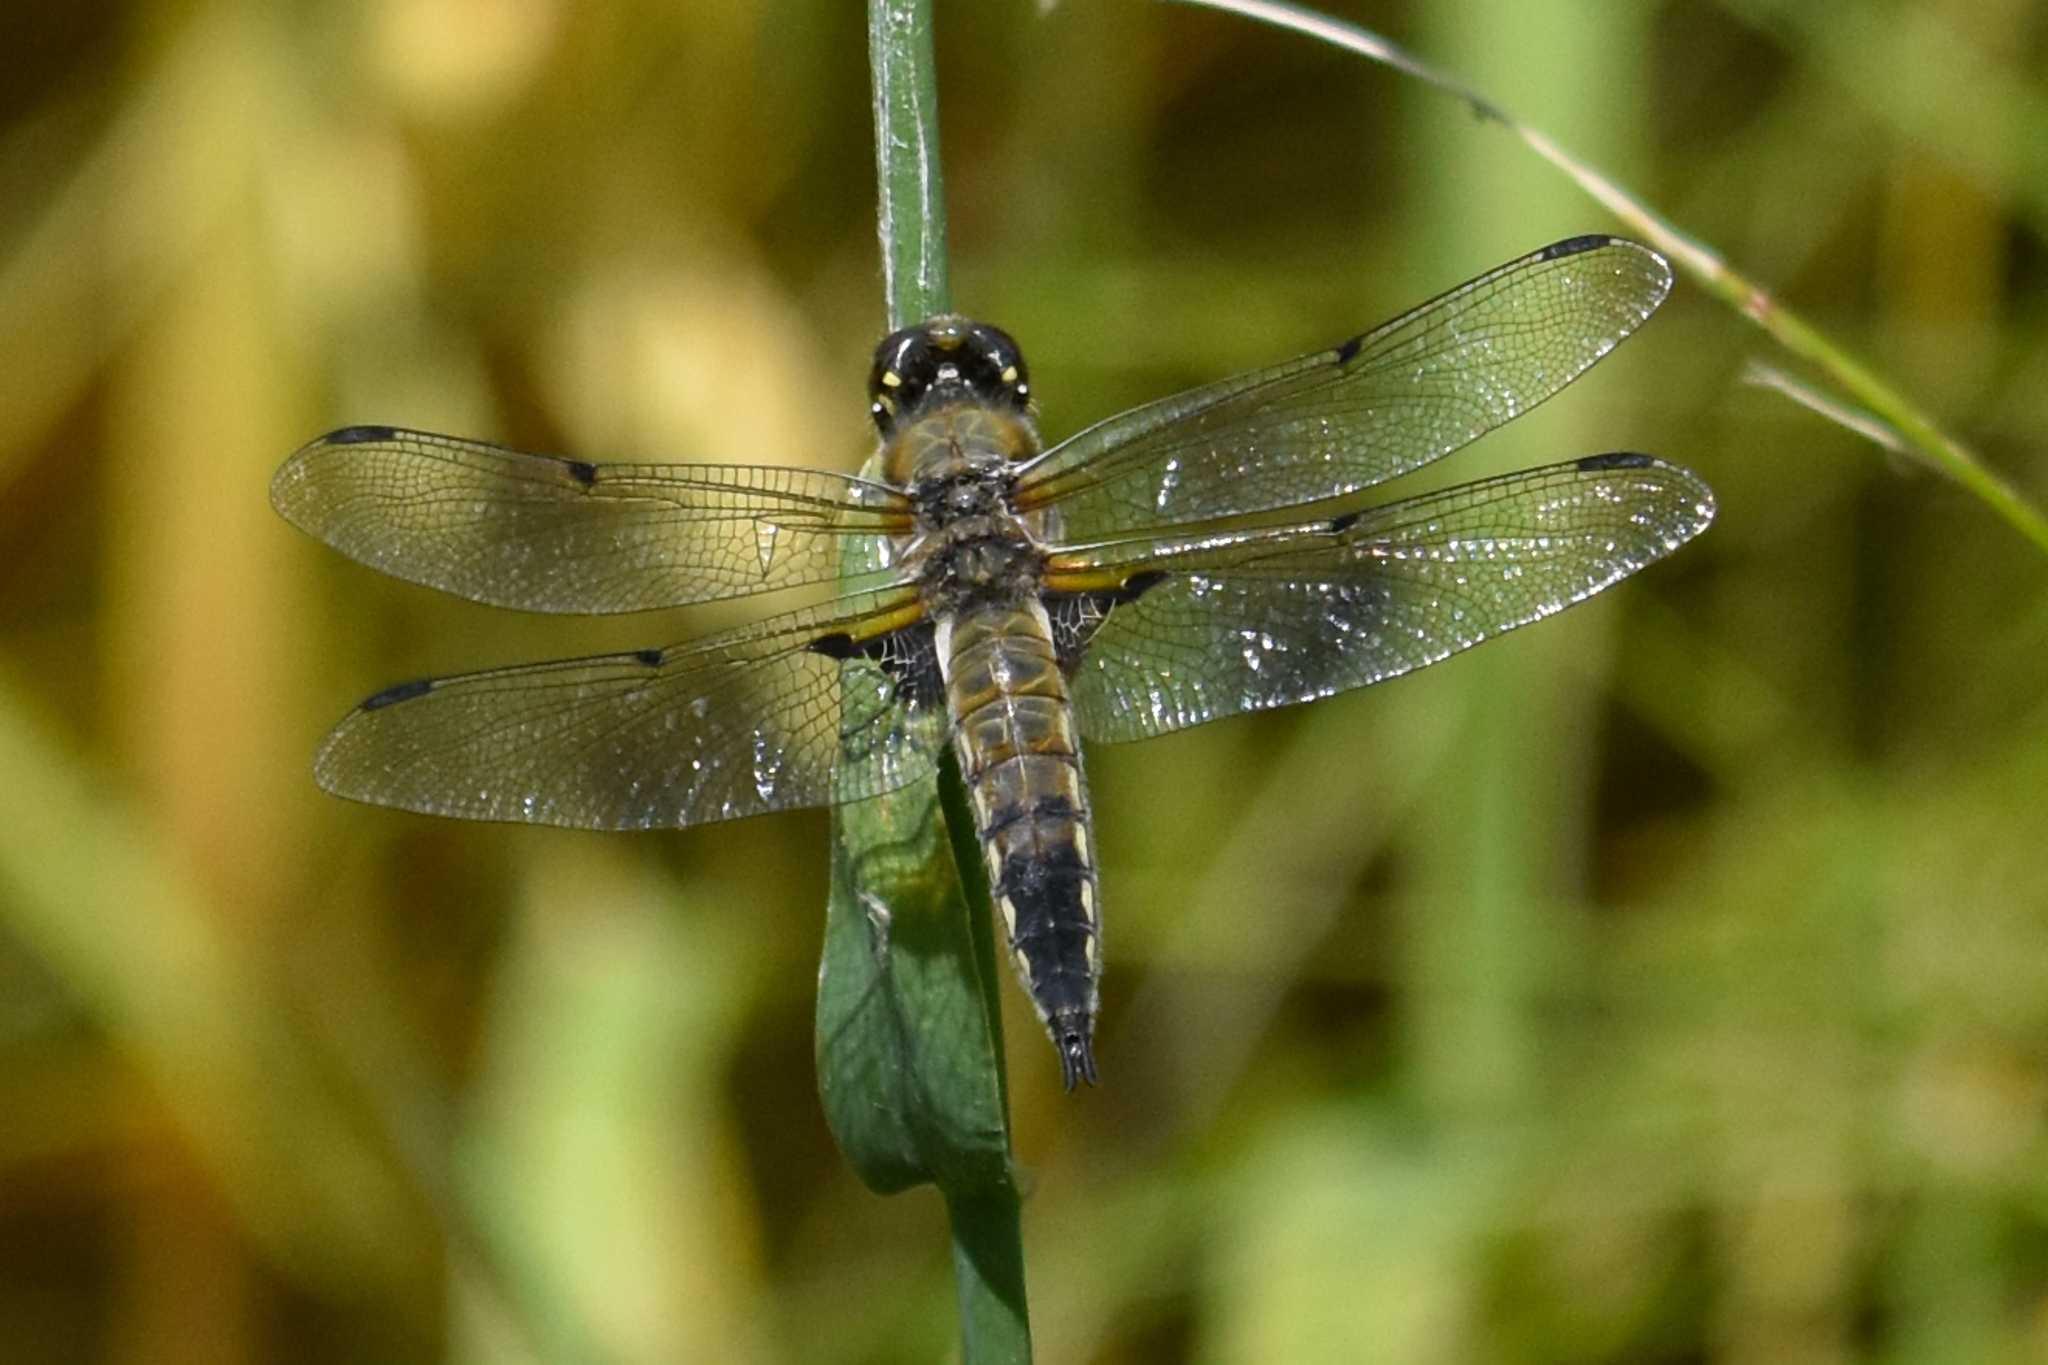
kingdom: Animalia
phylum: Arthropoda
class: Insecta
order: Odonata
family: Libellulidae
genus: Libellula
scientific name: Libellula quadrimaculata
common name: Four-spotted chaser
